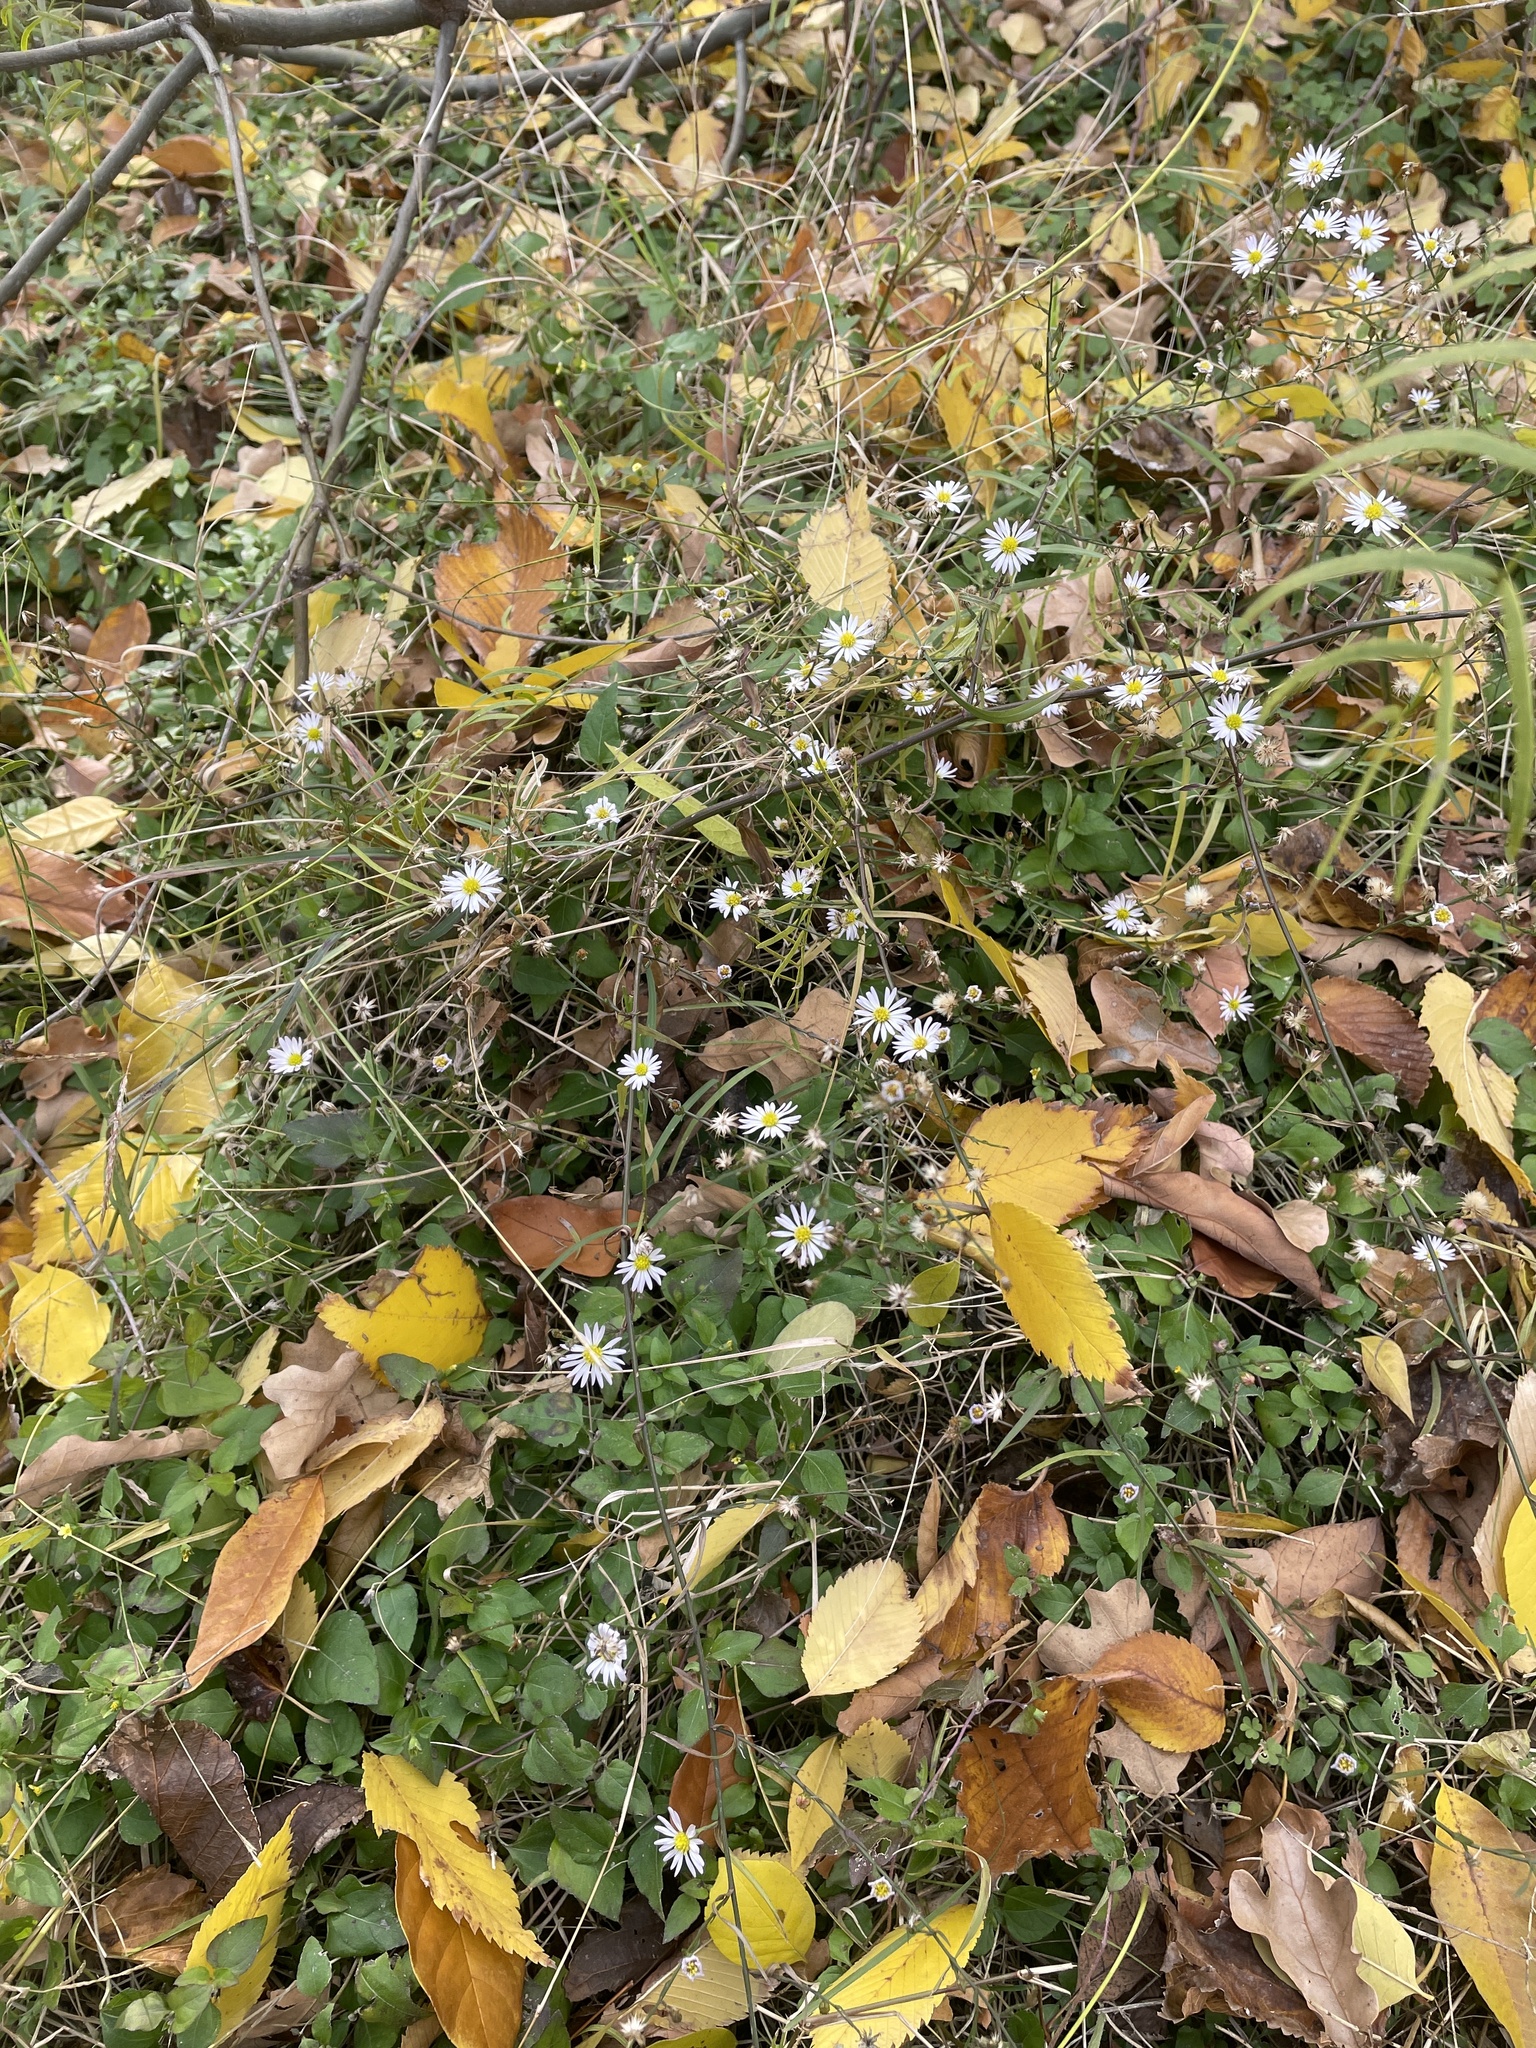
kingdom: Plantae
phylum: Tracheophyta
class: Magnoliopsida
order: Asterales
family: Asteraceae
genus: Symphyotrichum
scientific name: Symphyotrichum divaricatum
